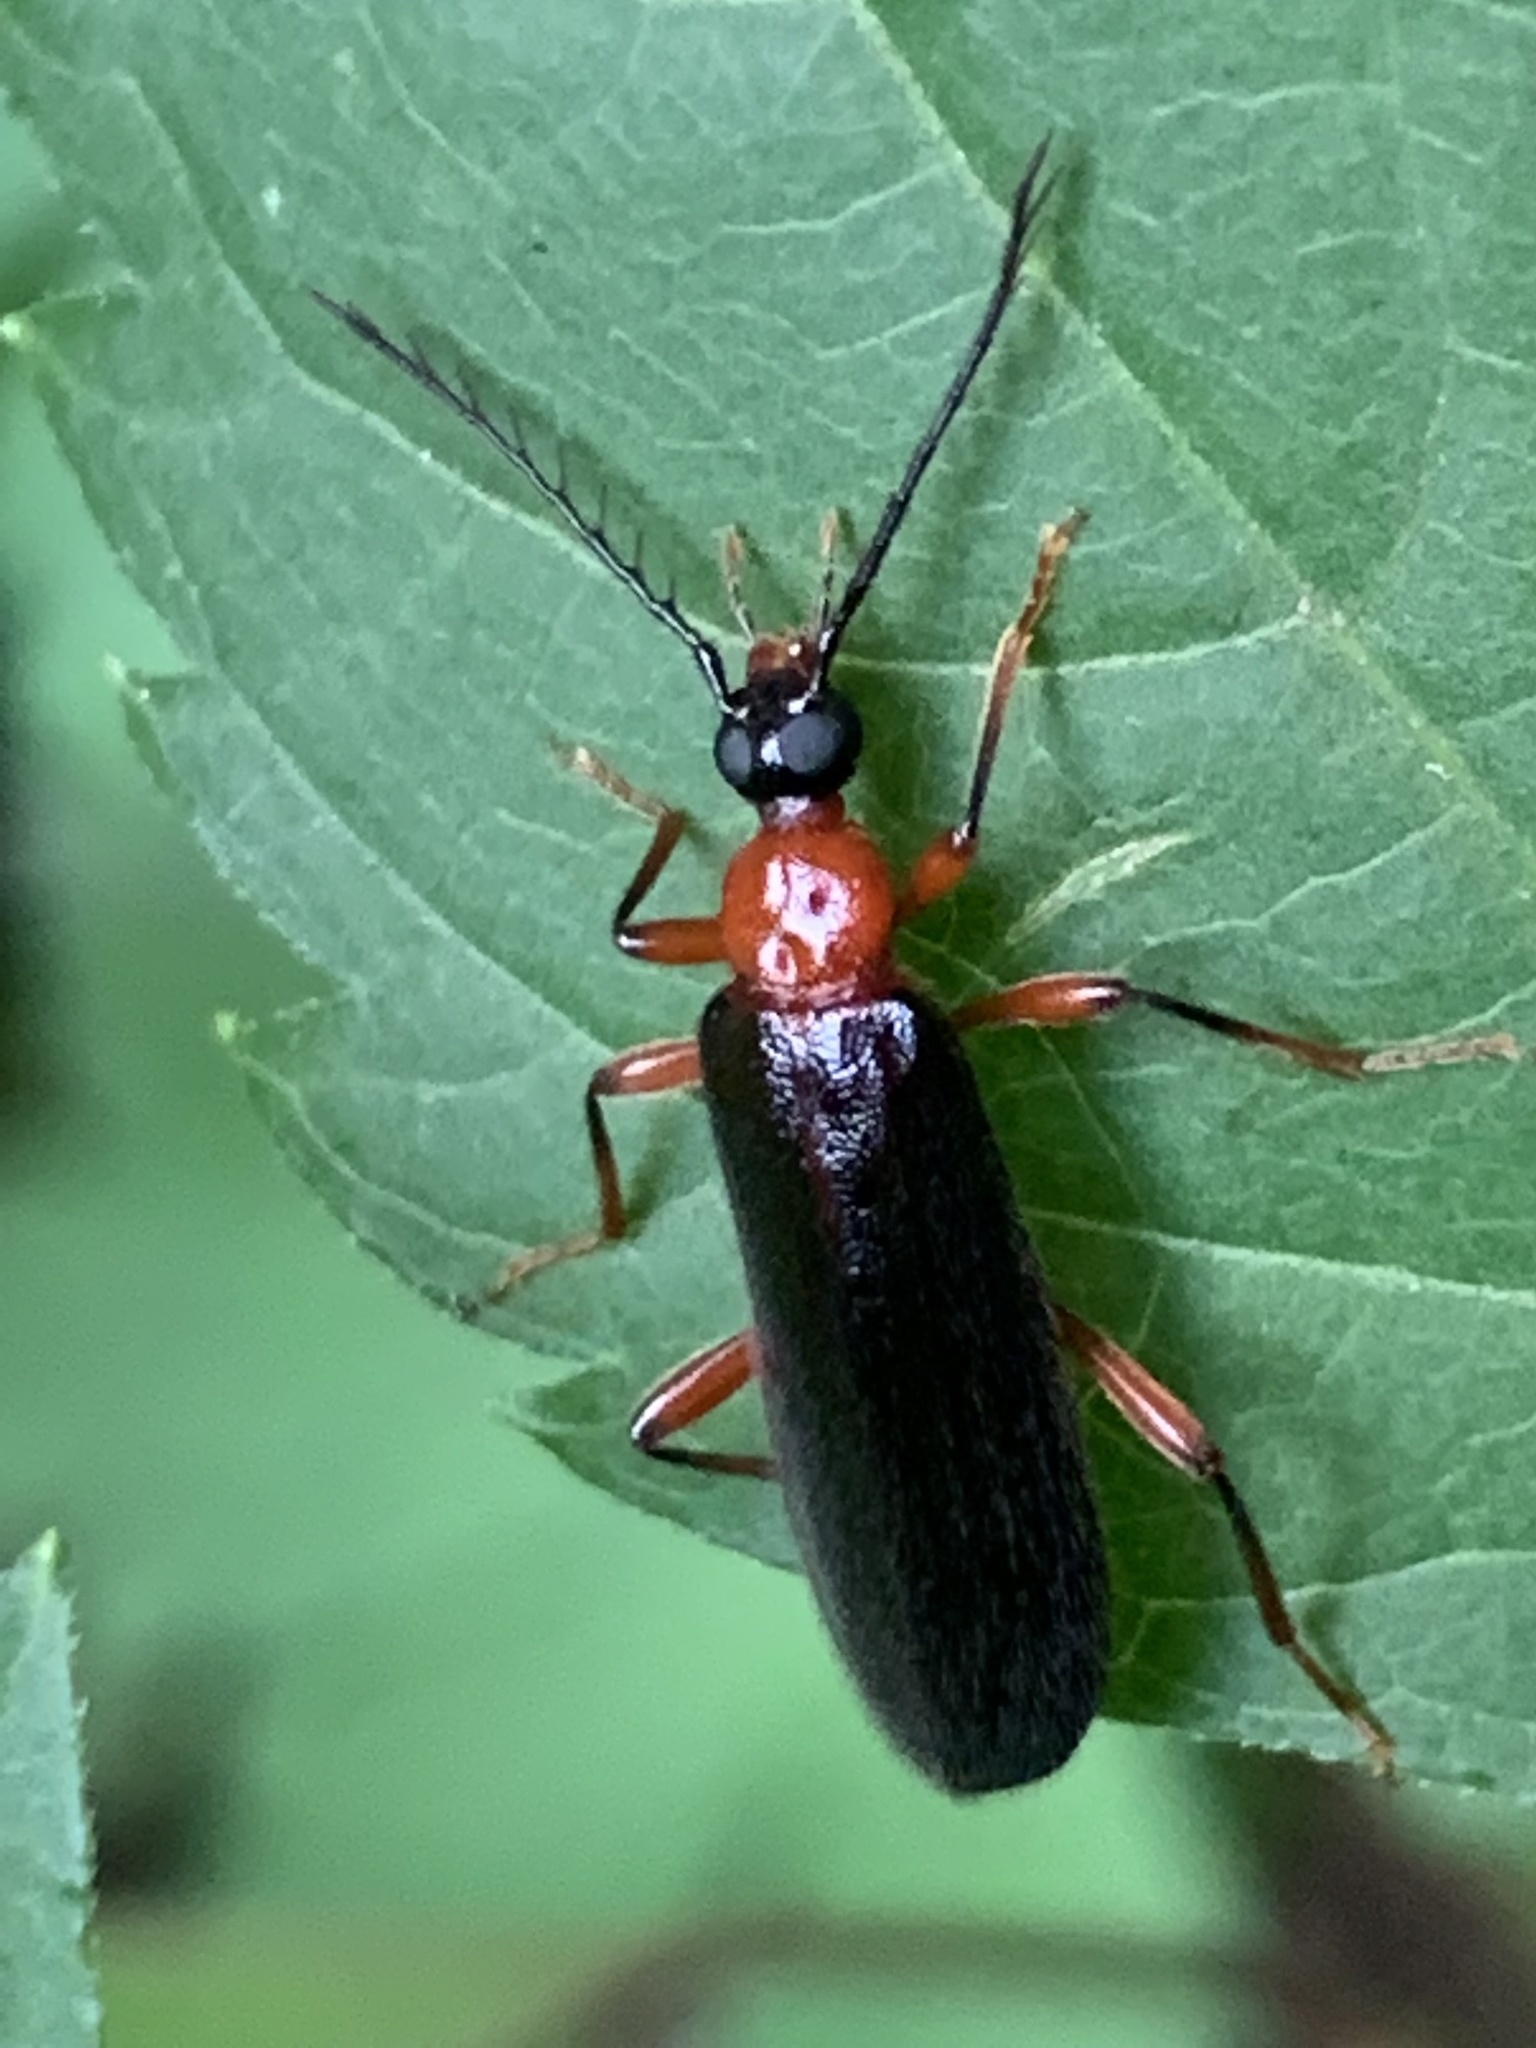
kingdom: Animalia
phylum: Arthropoda
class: Insecta
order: Coleoptera
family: Pyrochroidae
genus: Dendroides
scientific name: Dendroides canadensis
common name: Canada fire-colored beetle
